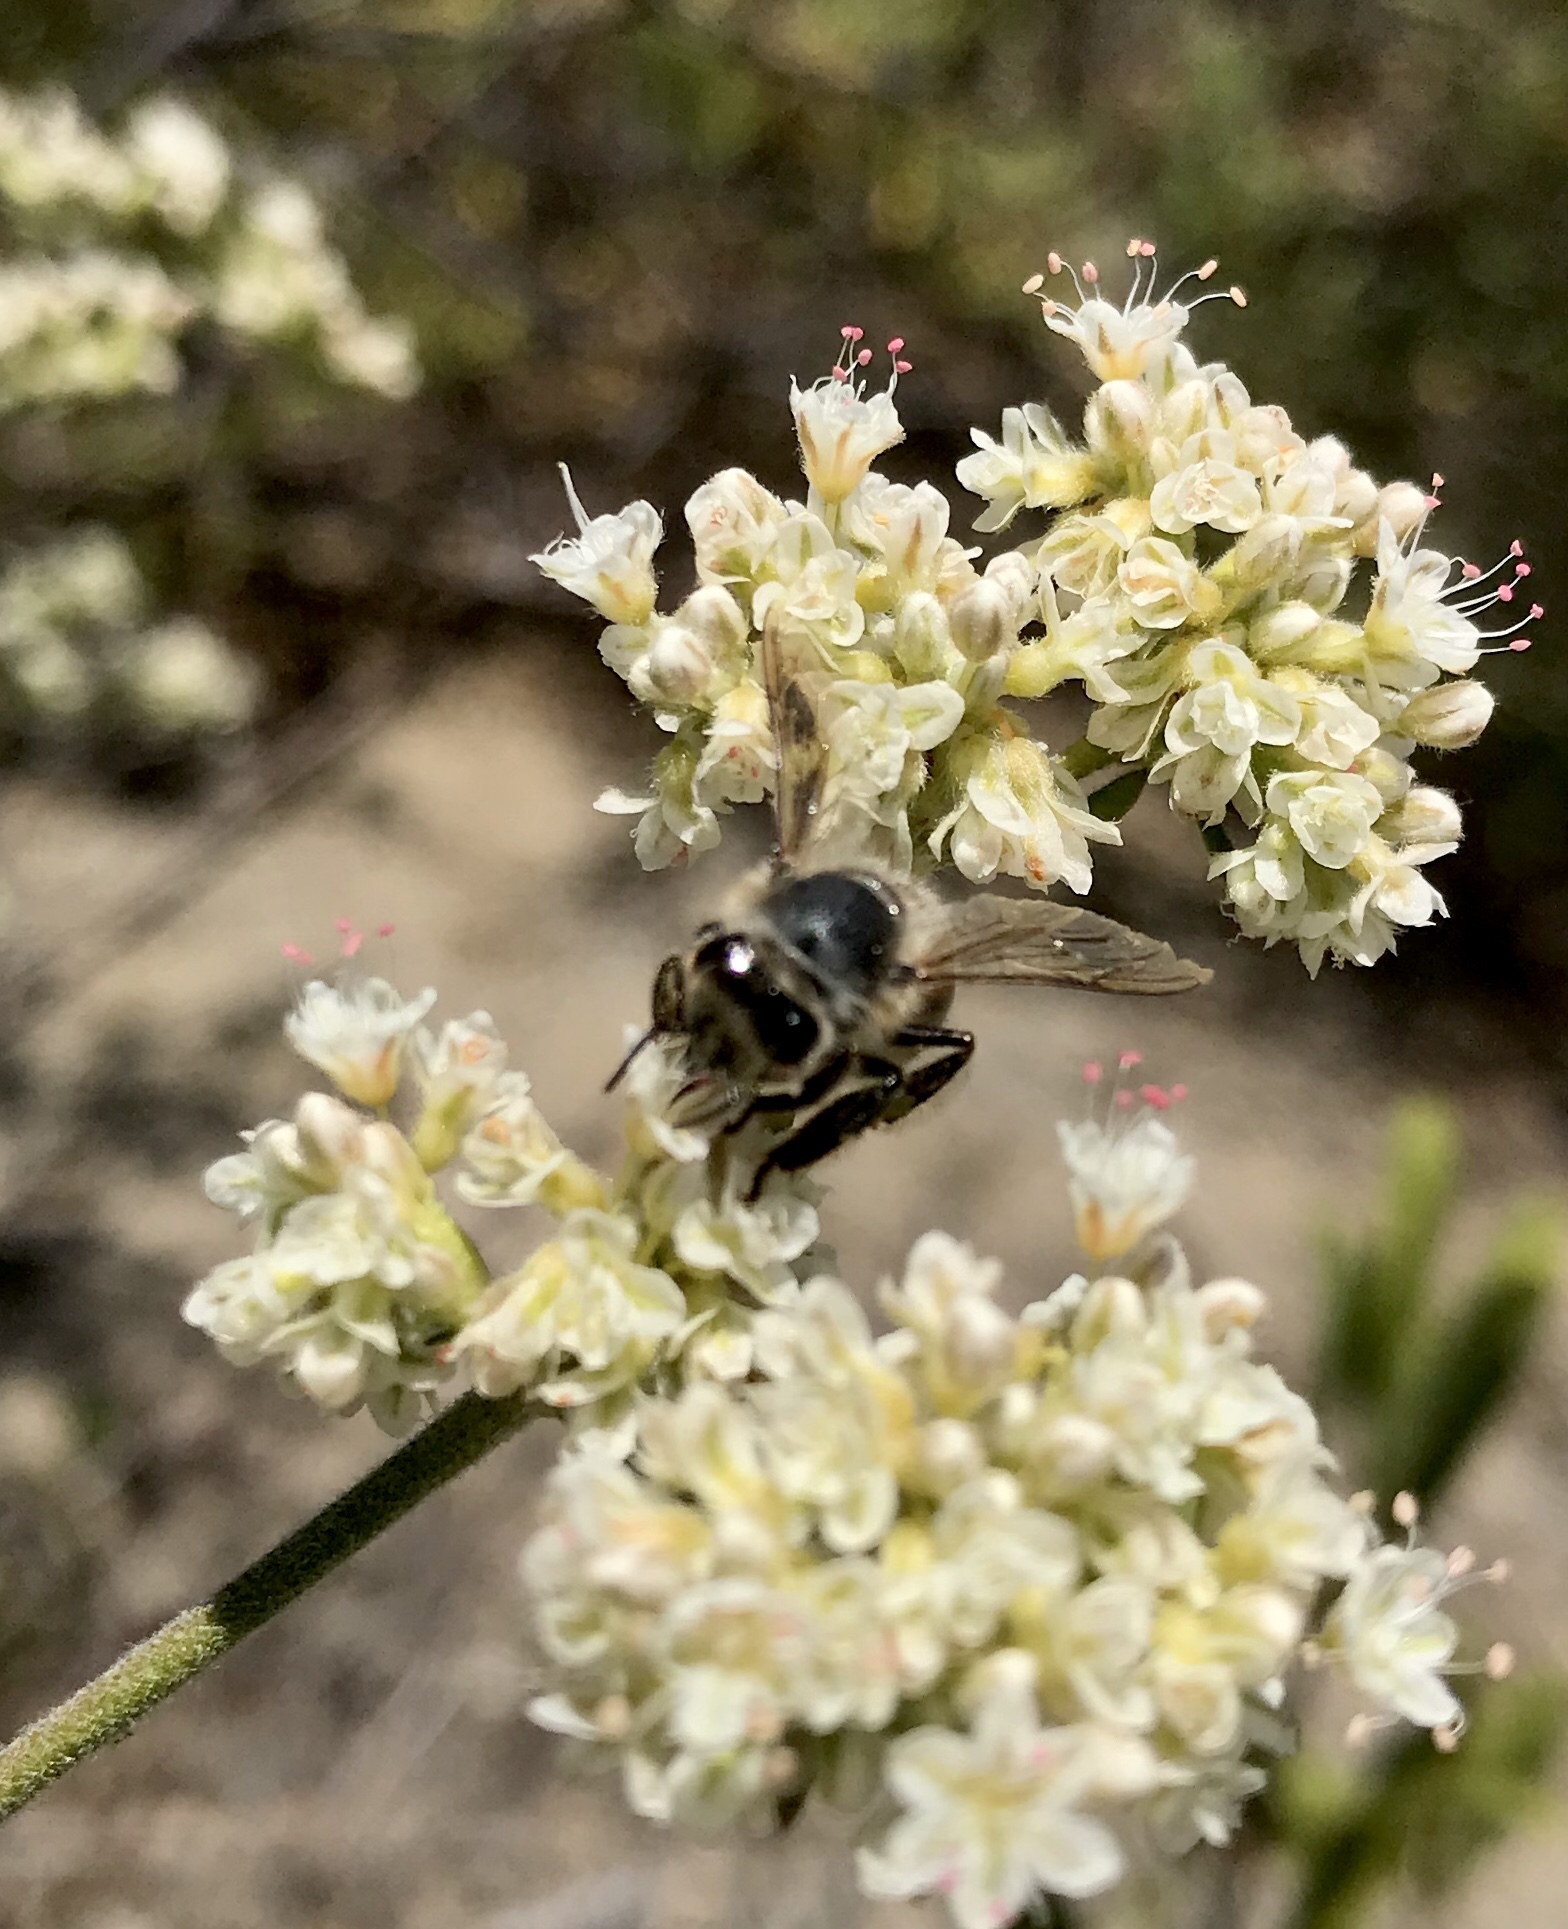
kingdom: Animalia
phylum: Arthropoda
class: Insecta
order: Hymenoptera
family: Apidae
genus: Apis
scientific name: Apis mellifera
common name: Honey bee
